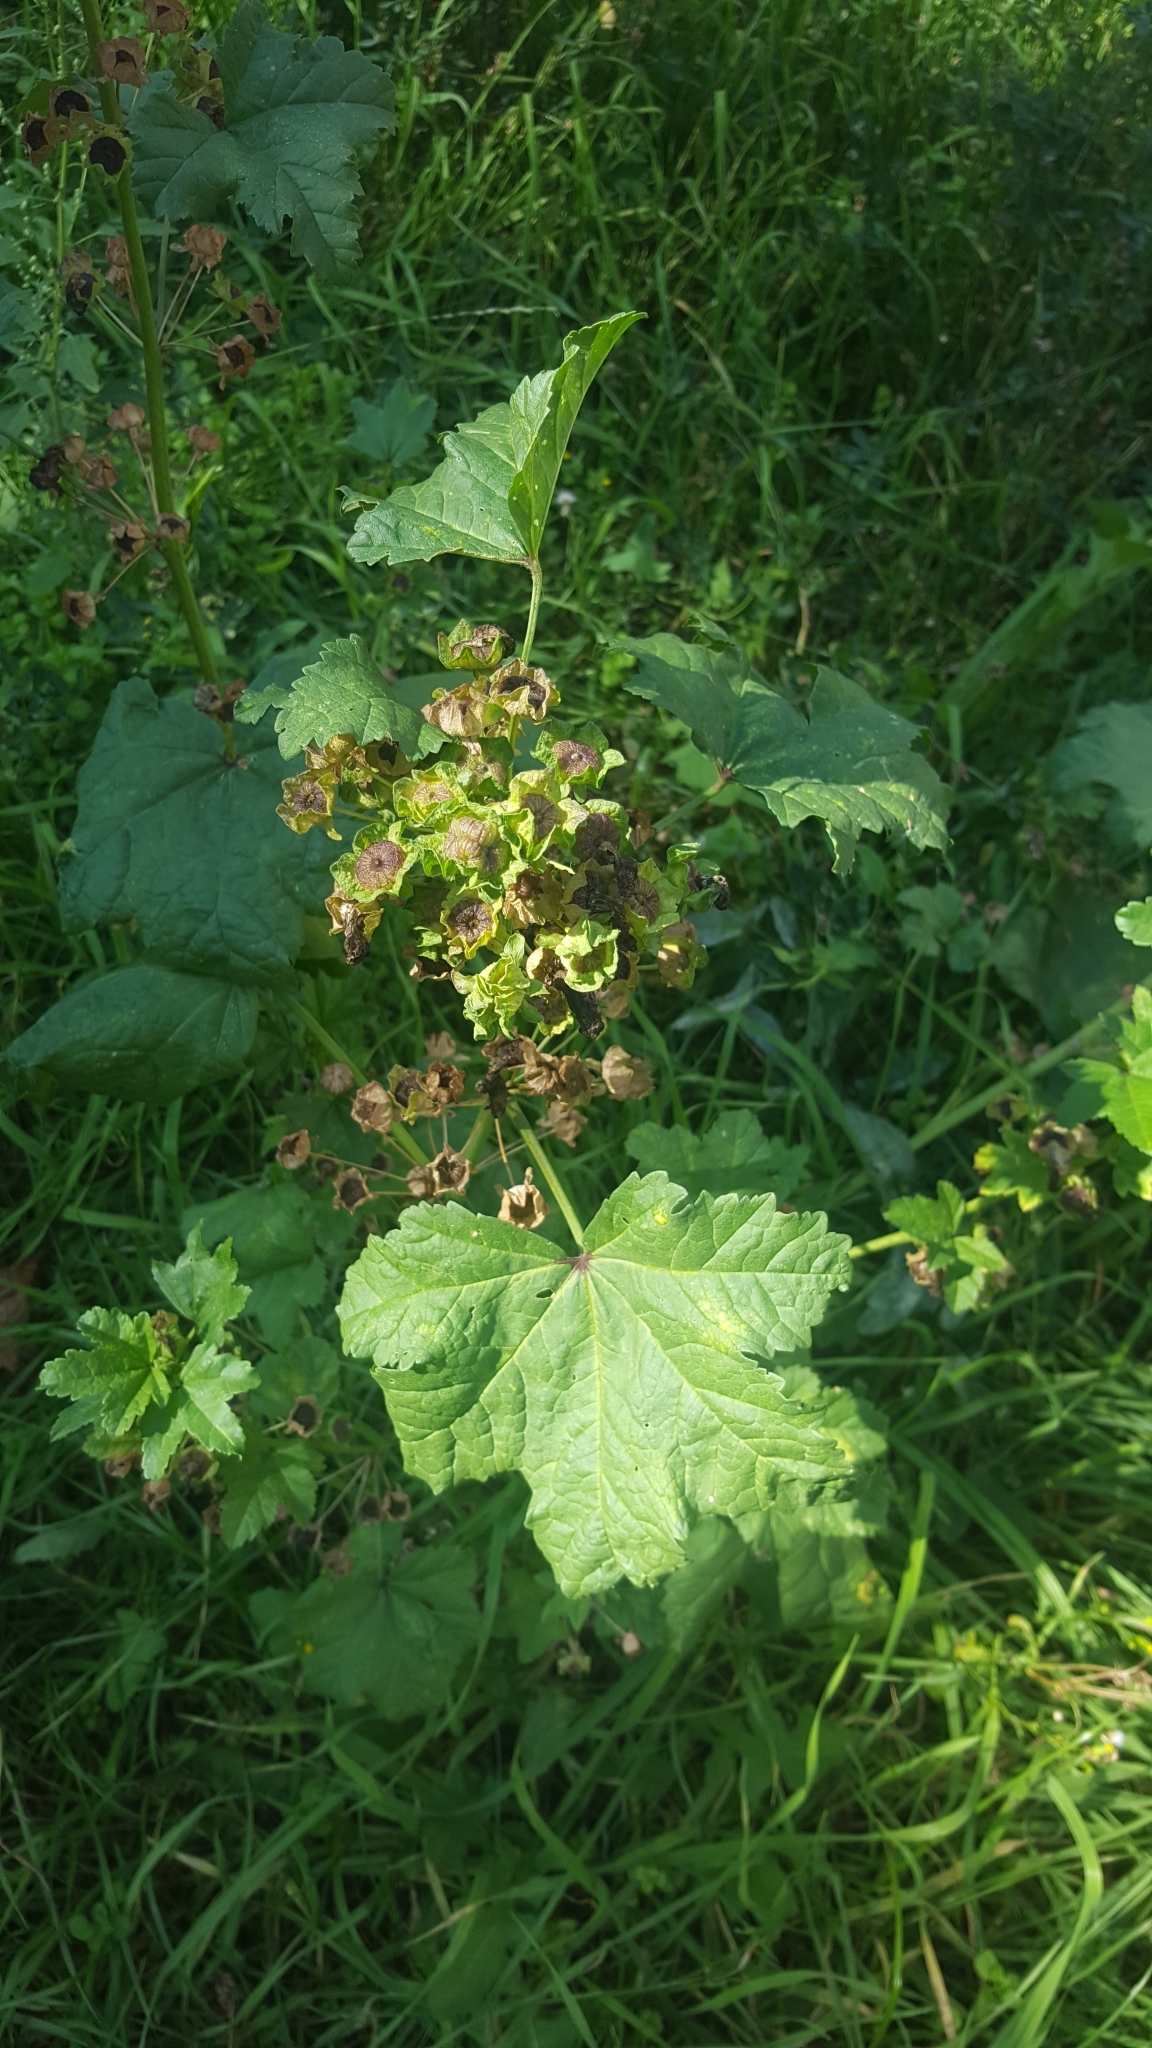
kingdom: Plantae
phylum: Tracheophyta
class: Magnoliopsida
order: Malvales
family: Malvaceae
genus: Malva
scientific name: Malva sylvestris
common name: Common mallow
